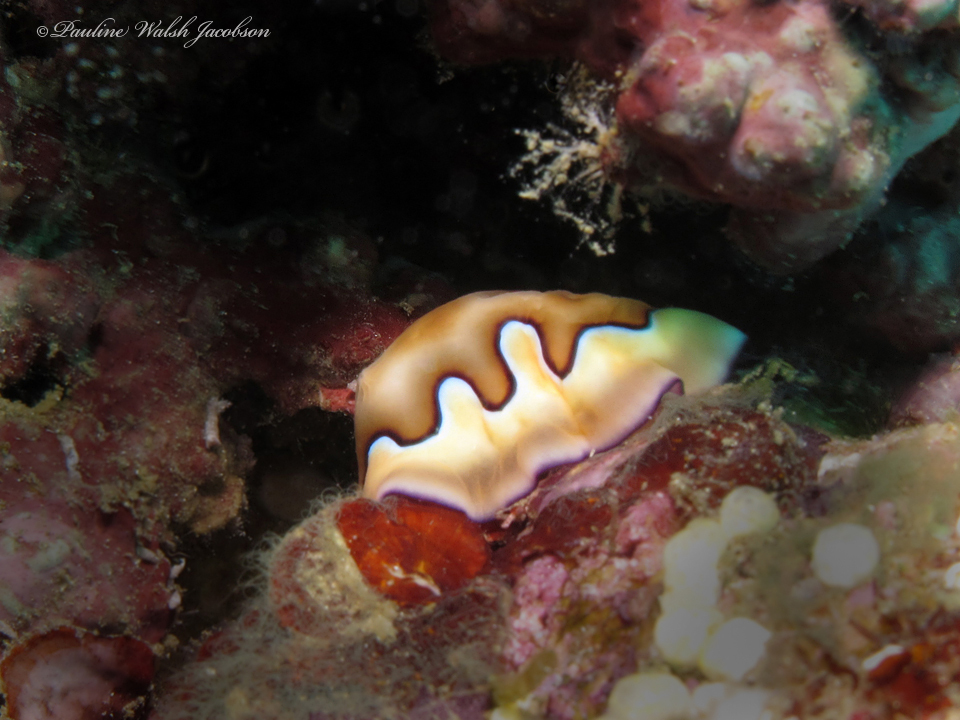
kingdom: Animalia
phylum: Mollusca
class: Gastropoda
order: Nudibranchia
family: Chromodorididae
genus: Goniobranchus
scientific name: Goniobranchus coi
